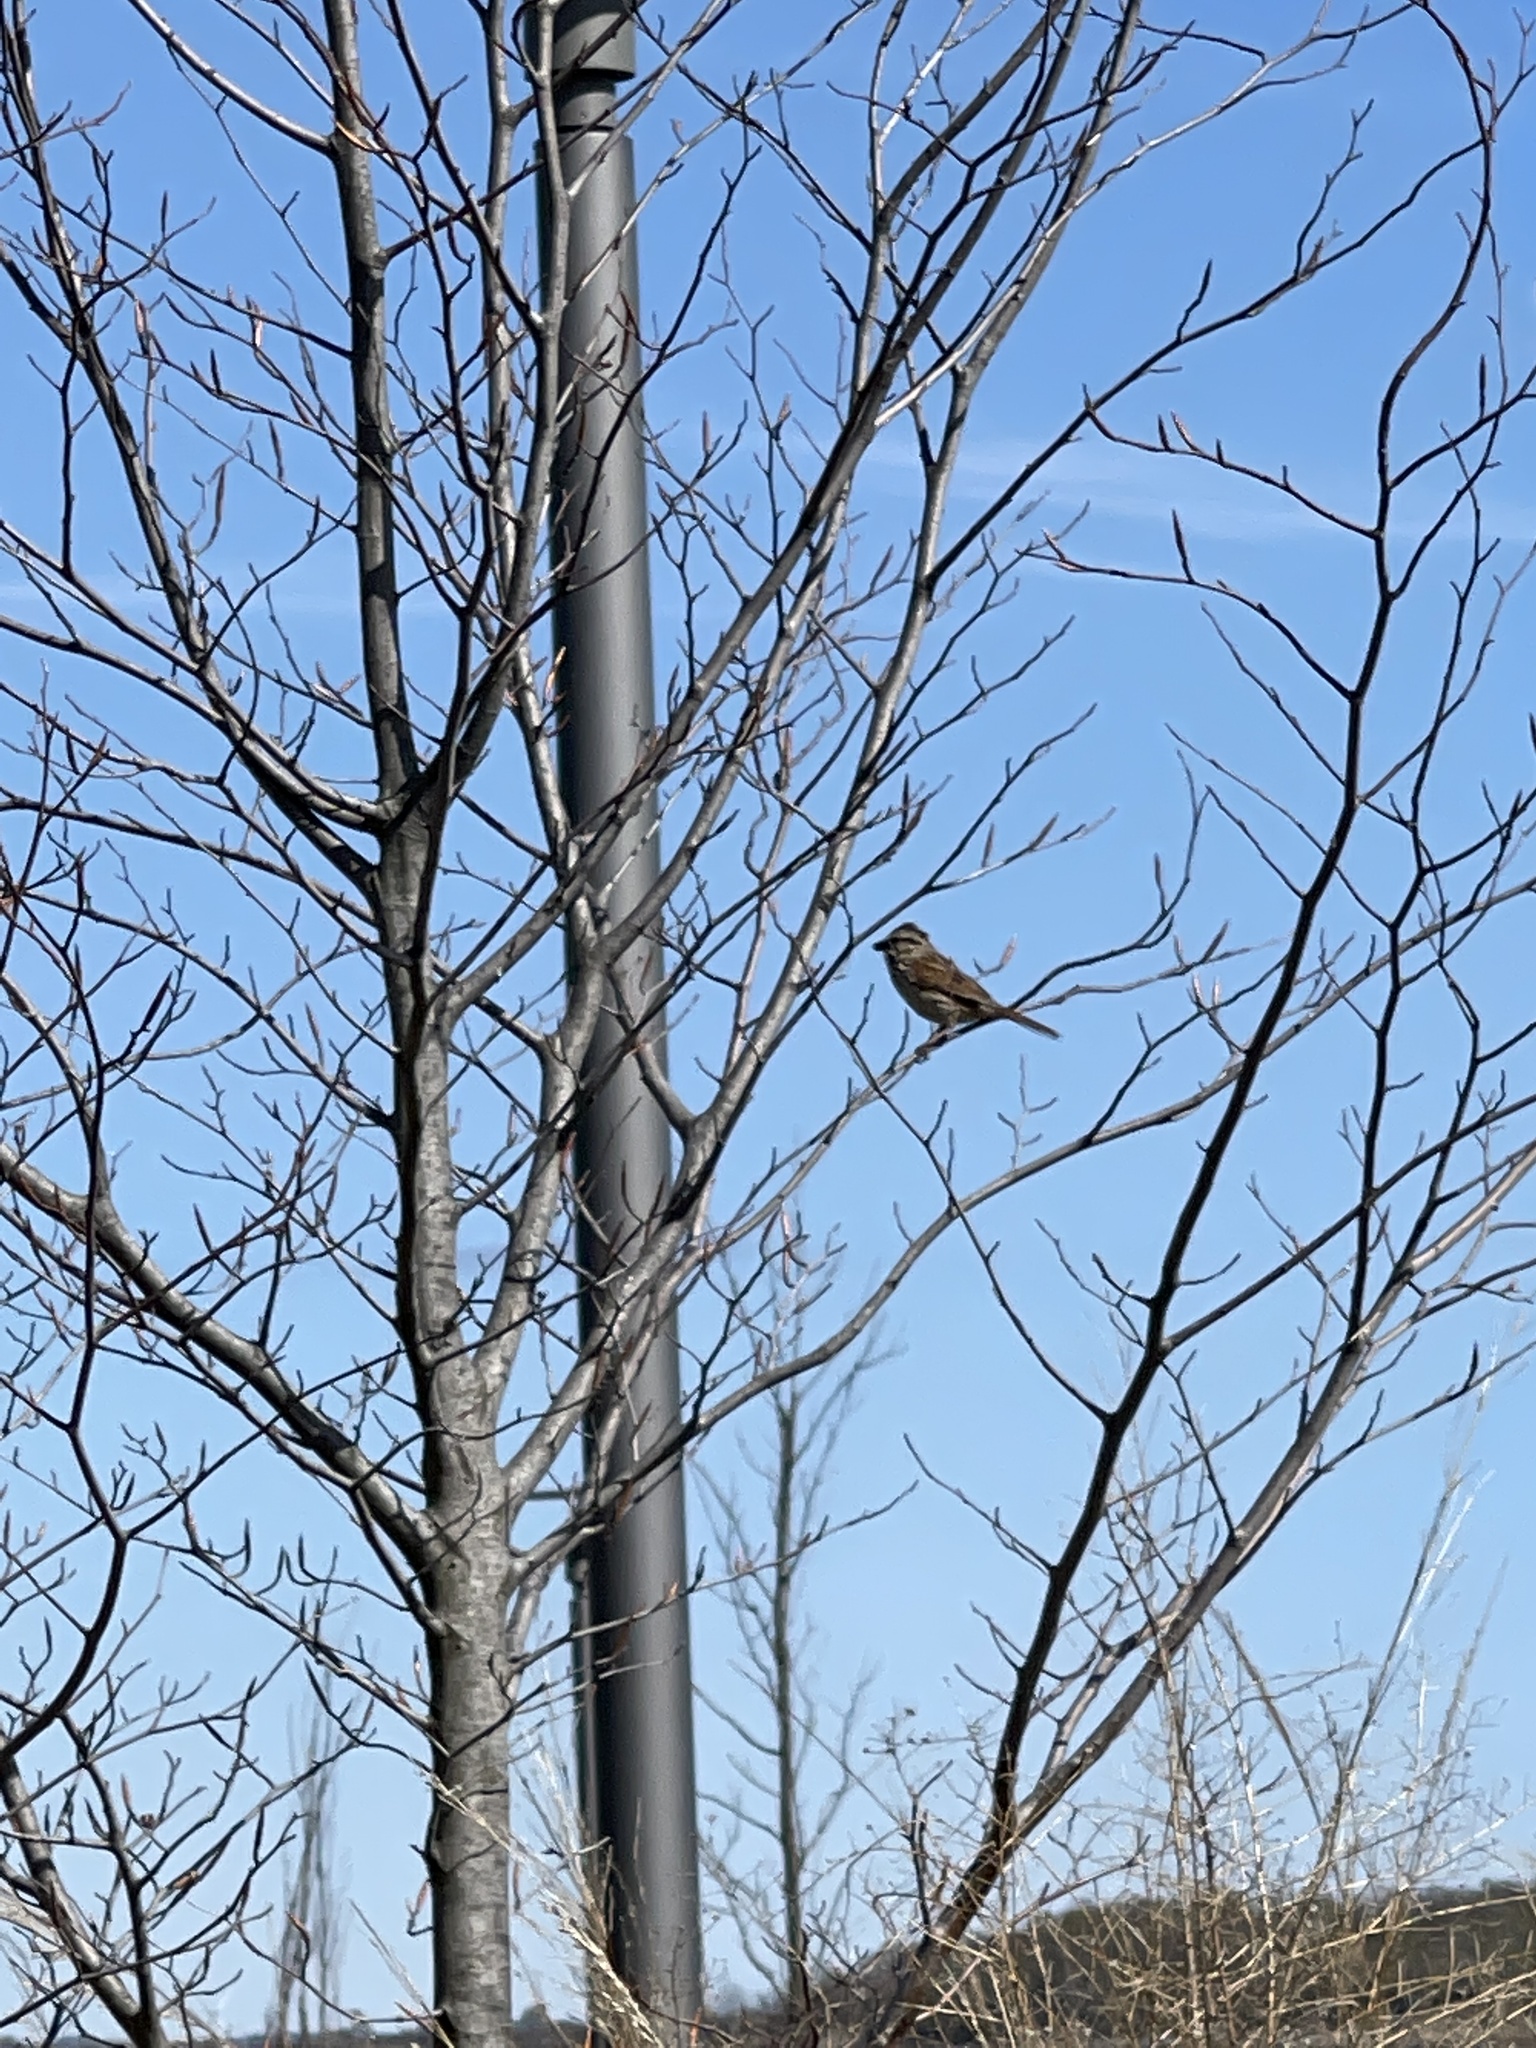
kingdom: Animalia
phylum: Chordata
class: Aves
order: Passeriformes
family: Passerellidae
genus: Melospiza
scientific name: Melospiza melodia
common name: Song sparrow
